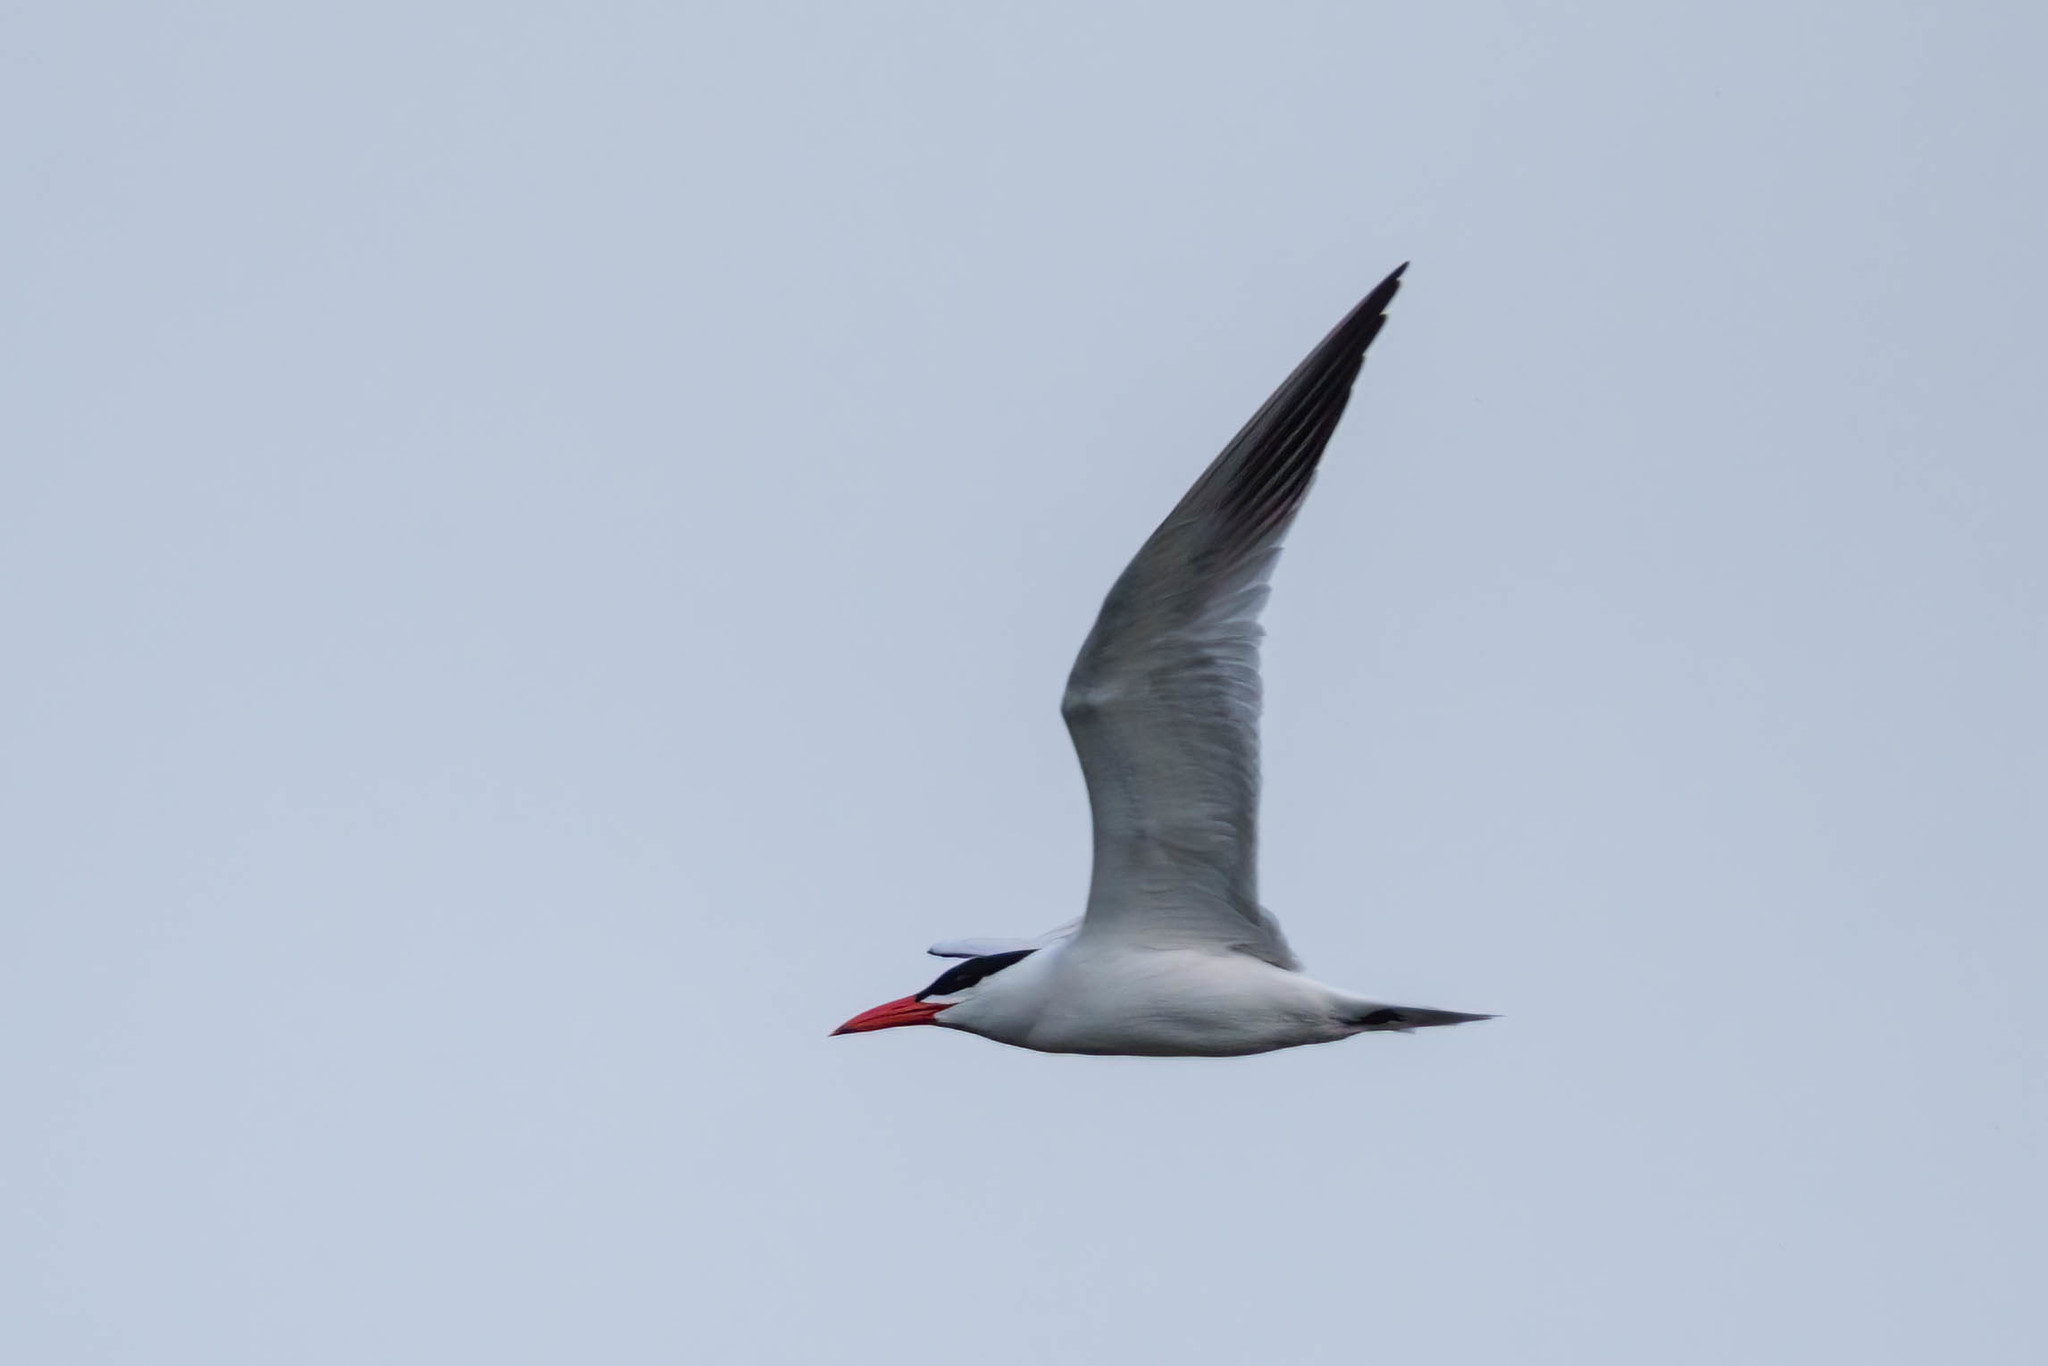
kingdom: Animalia
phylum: Chordata
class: Aves
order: Charadriiformes
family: Laridae
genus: Hydroprogne
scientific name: Hydroprogne caspia
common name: Caspian tern
